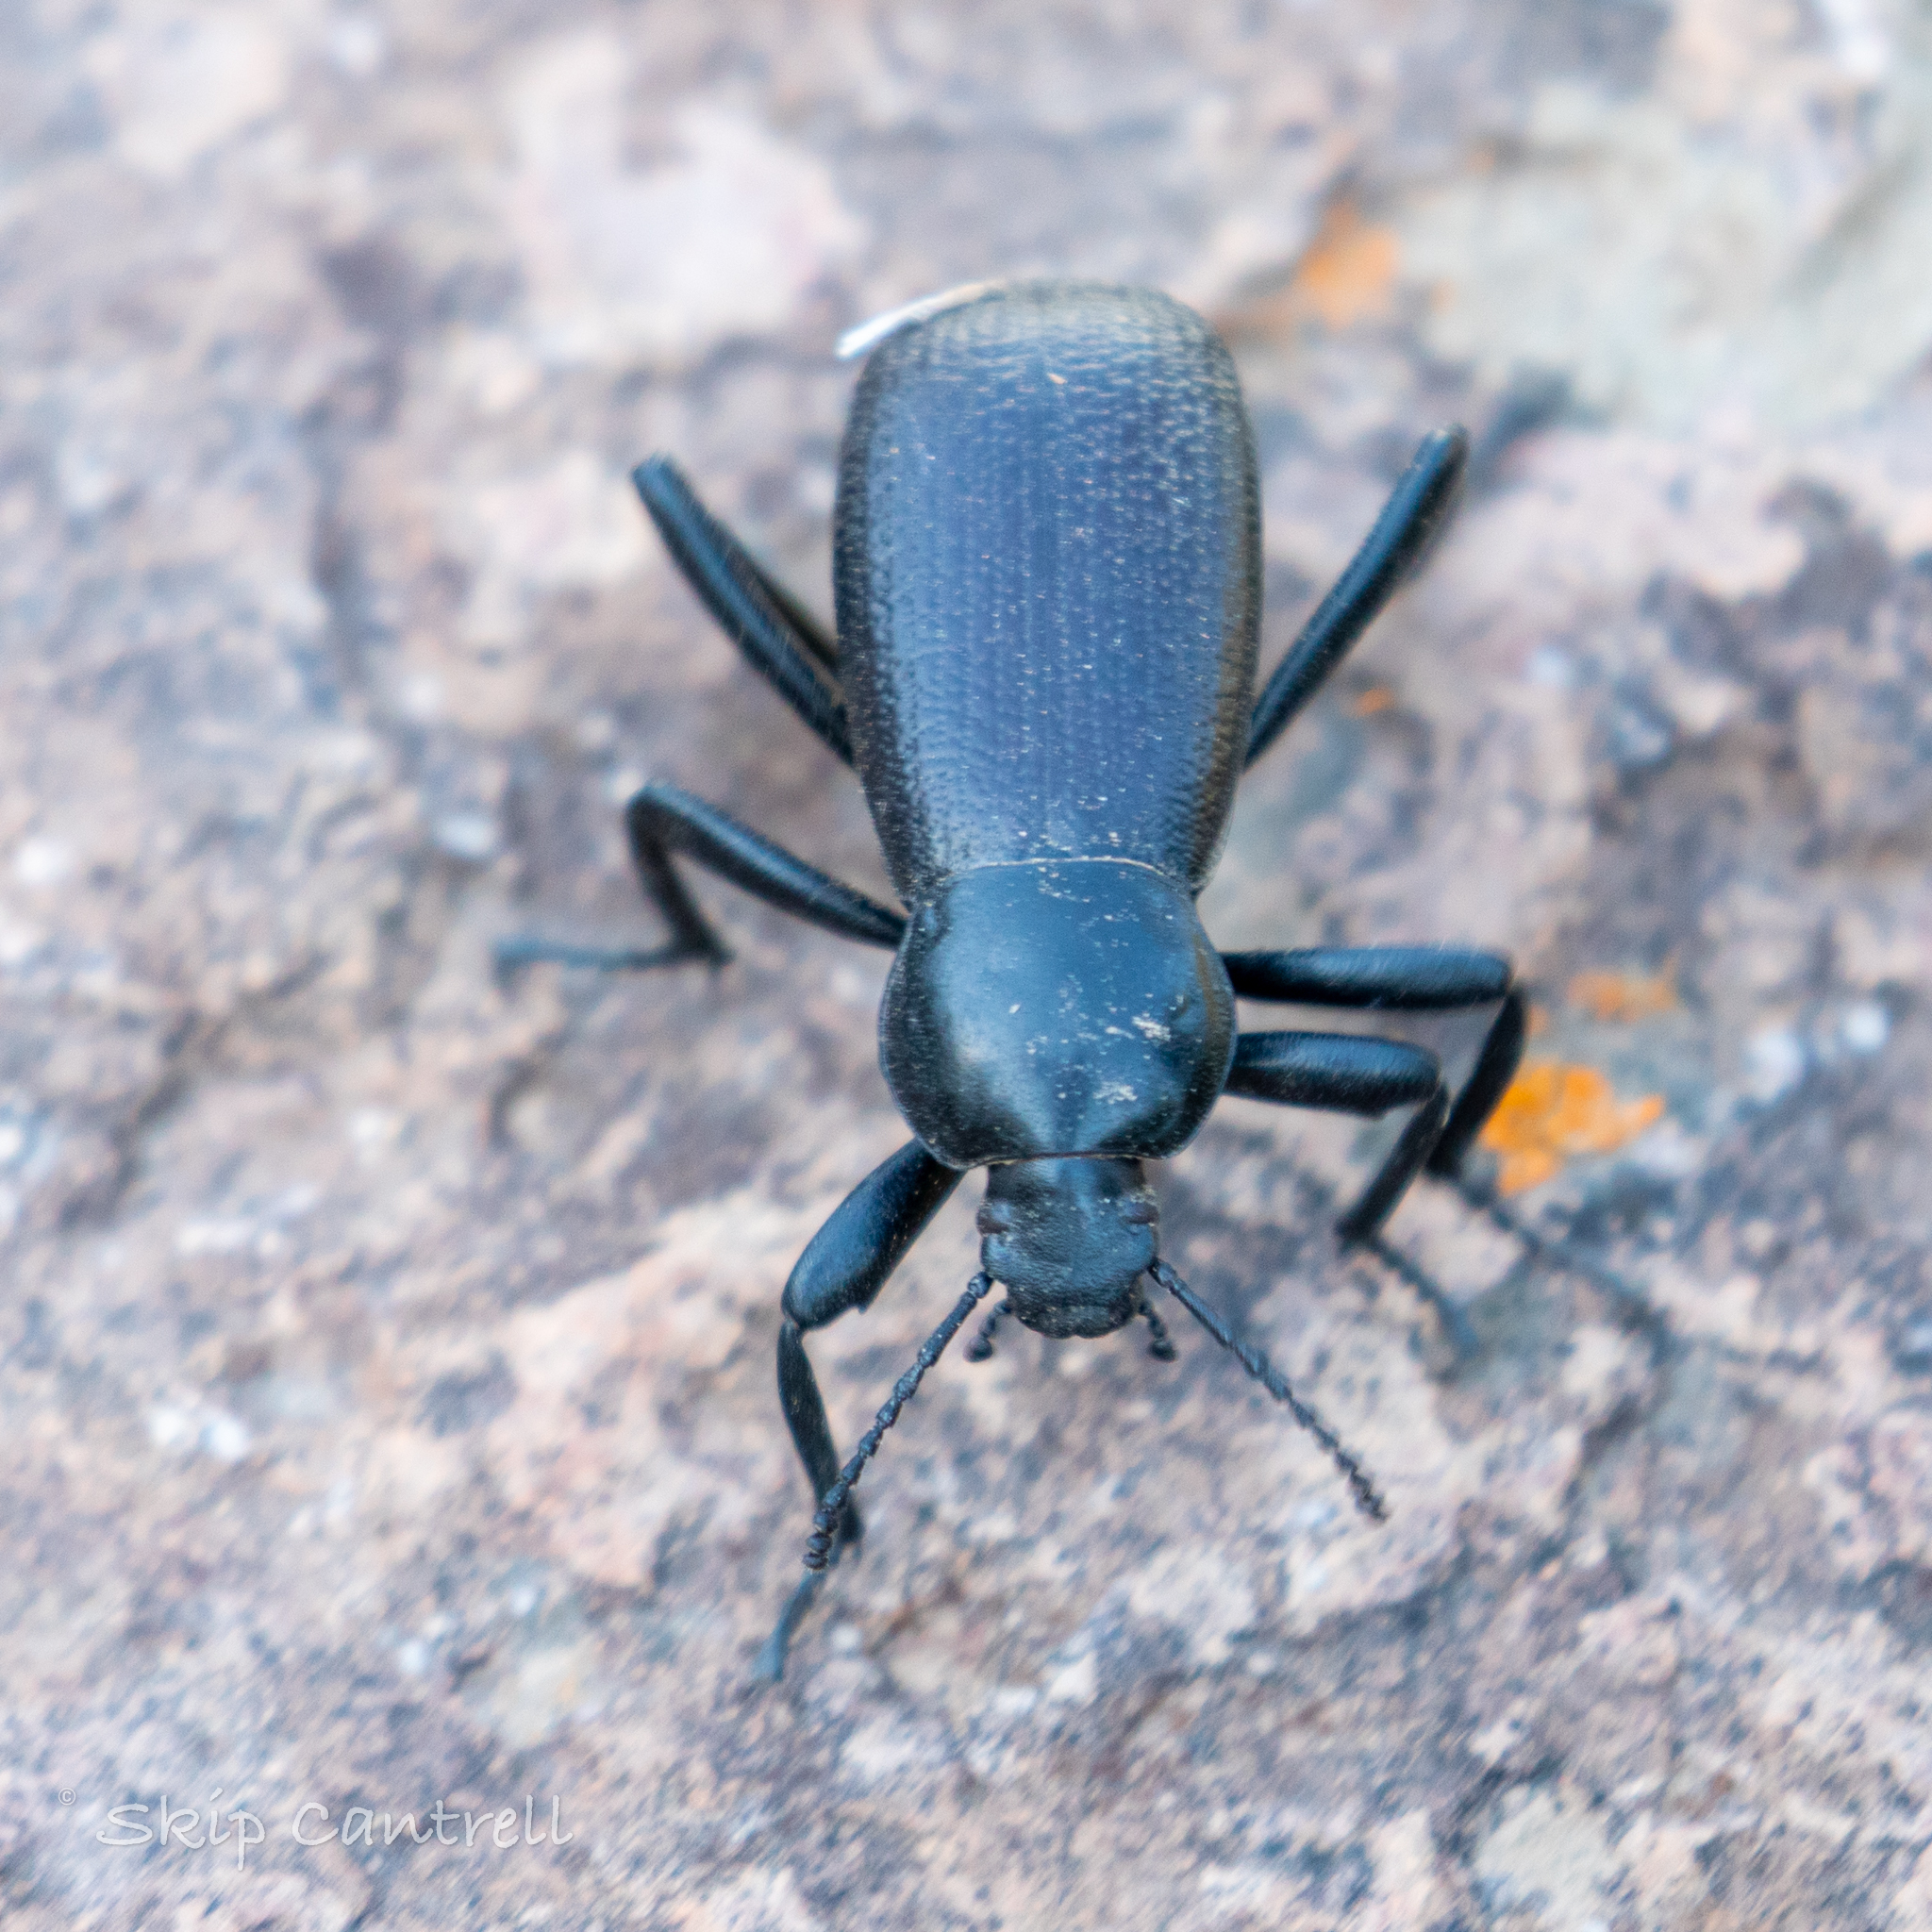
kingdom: Animalia
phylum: Arthropoda
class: Insecta
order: Coleoptera
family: Tenebrionidae
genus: Eleodes
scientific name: Eleodes obscura
